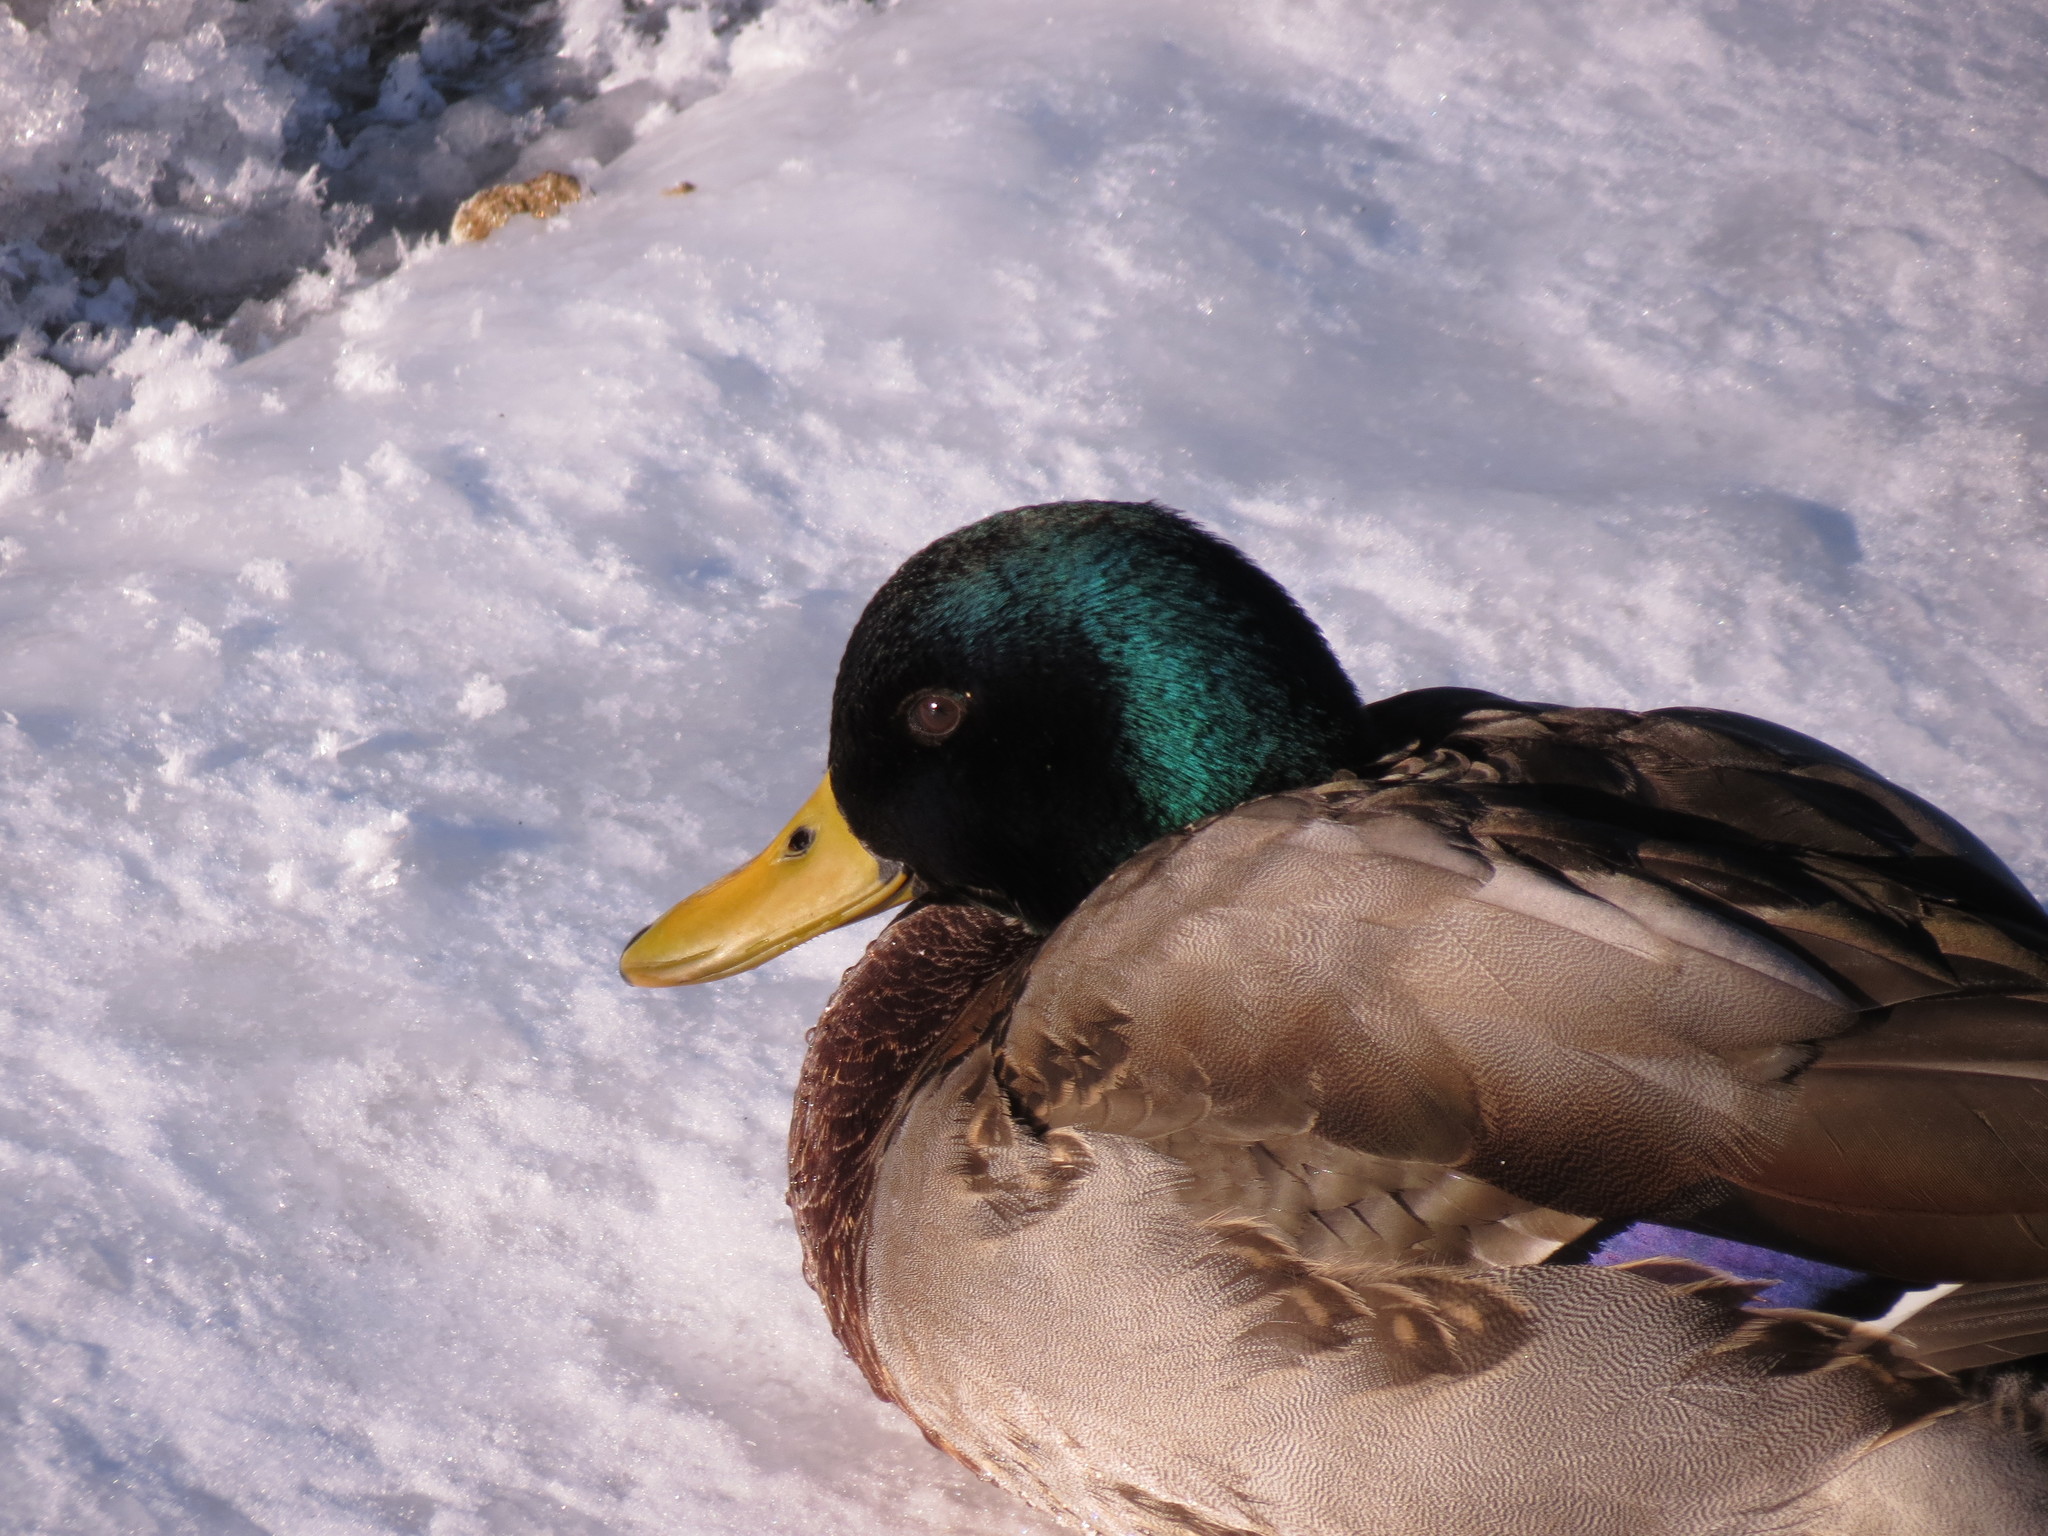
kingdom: Animalia
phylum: Chordata
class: Aves
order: Anseriformes
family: Anatidae
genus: Anas
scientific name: Anas platyrhynchos
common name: Mallard
